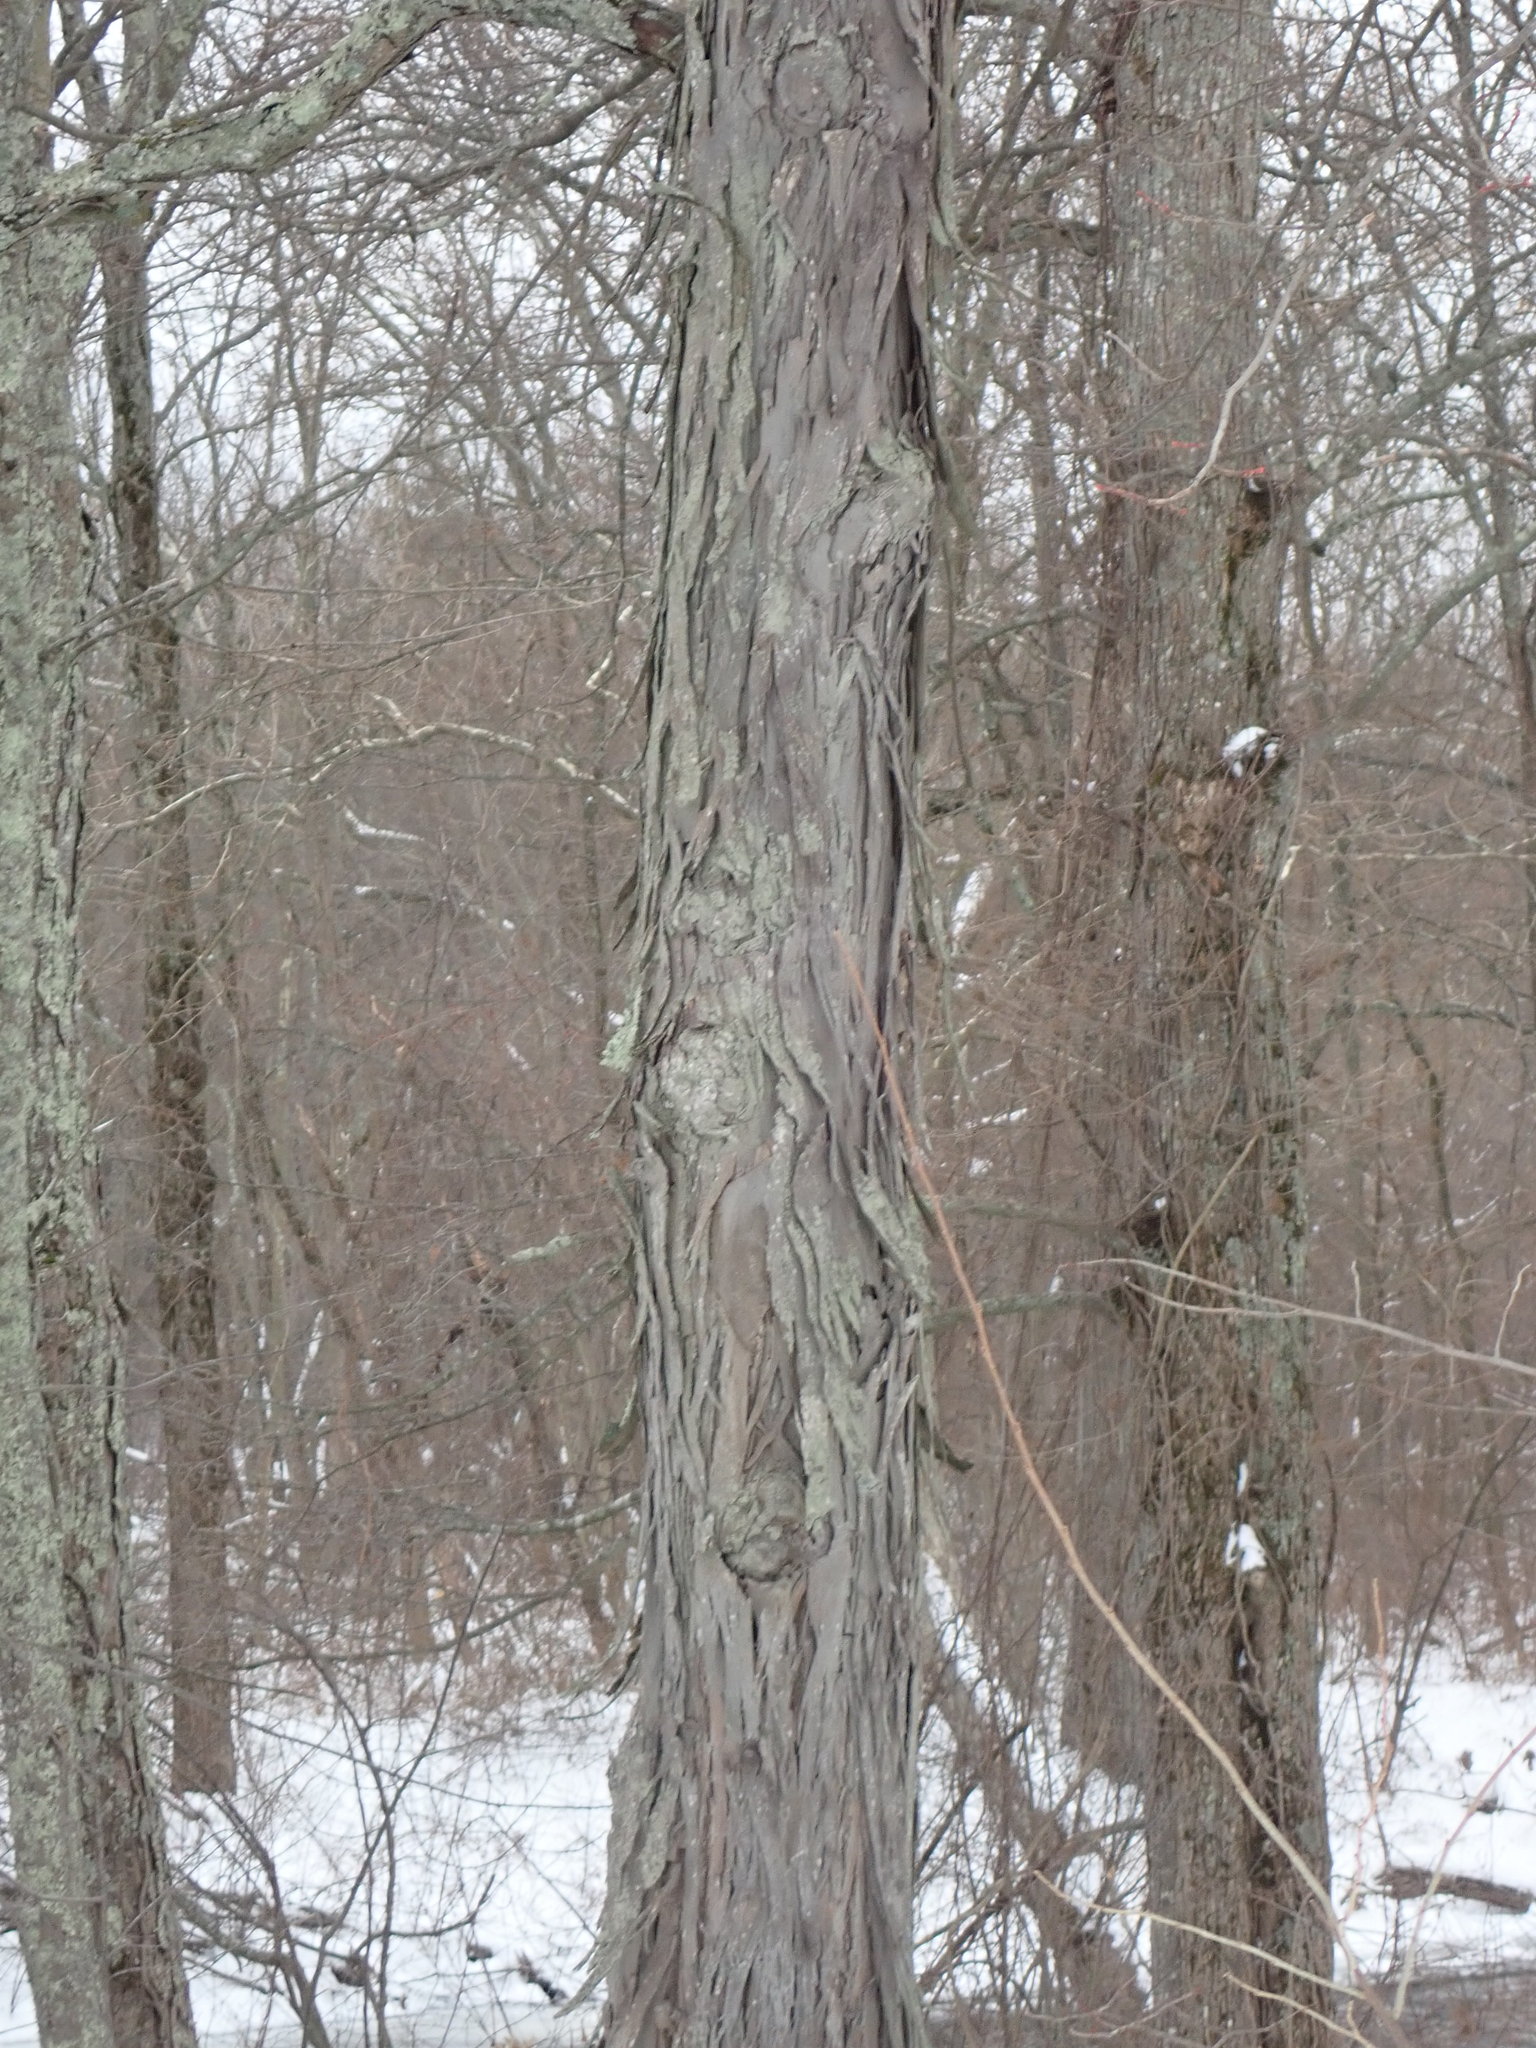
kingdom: Plantae
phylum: Tracheophyta
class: Magnoliopsida
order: Fagales
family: Juglandaceae
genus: Carya
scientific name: Carya ovata
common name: Shagbark hickory
